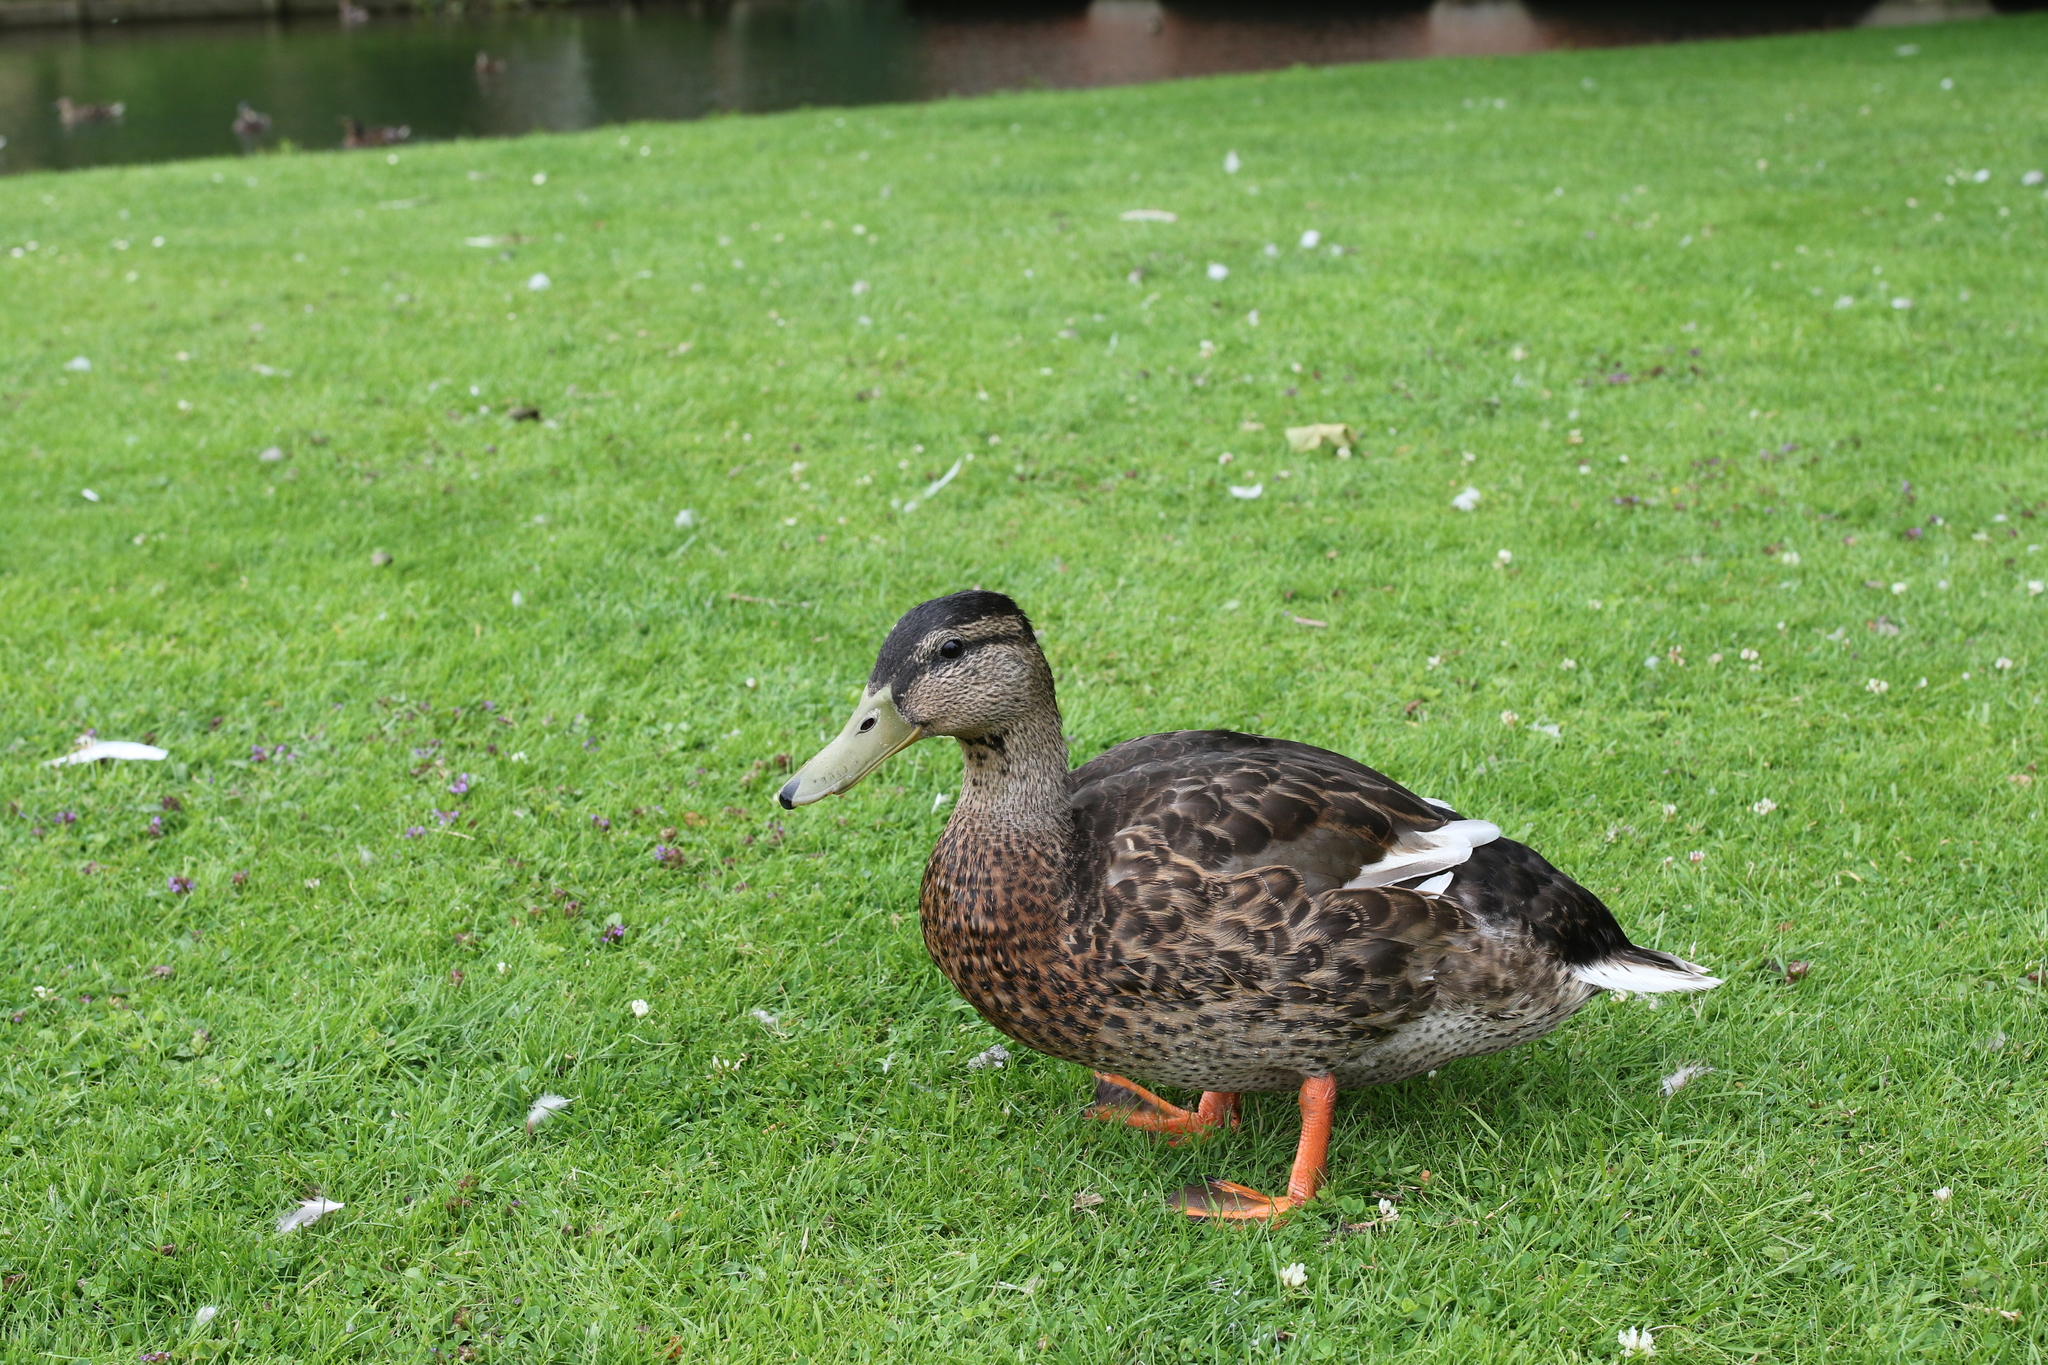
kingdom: Animalia
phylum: Chordata
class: Aves
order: Anseriformes
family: Anatidae
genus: Anas
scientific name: Anas platyrhynchos
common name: Mallard
